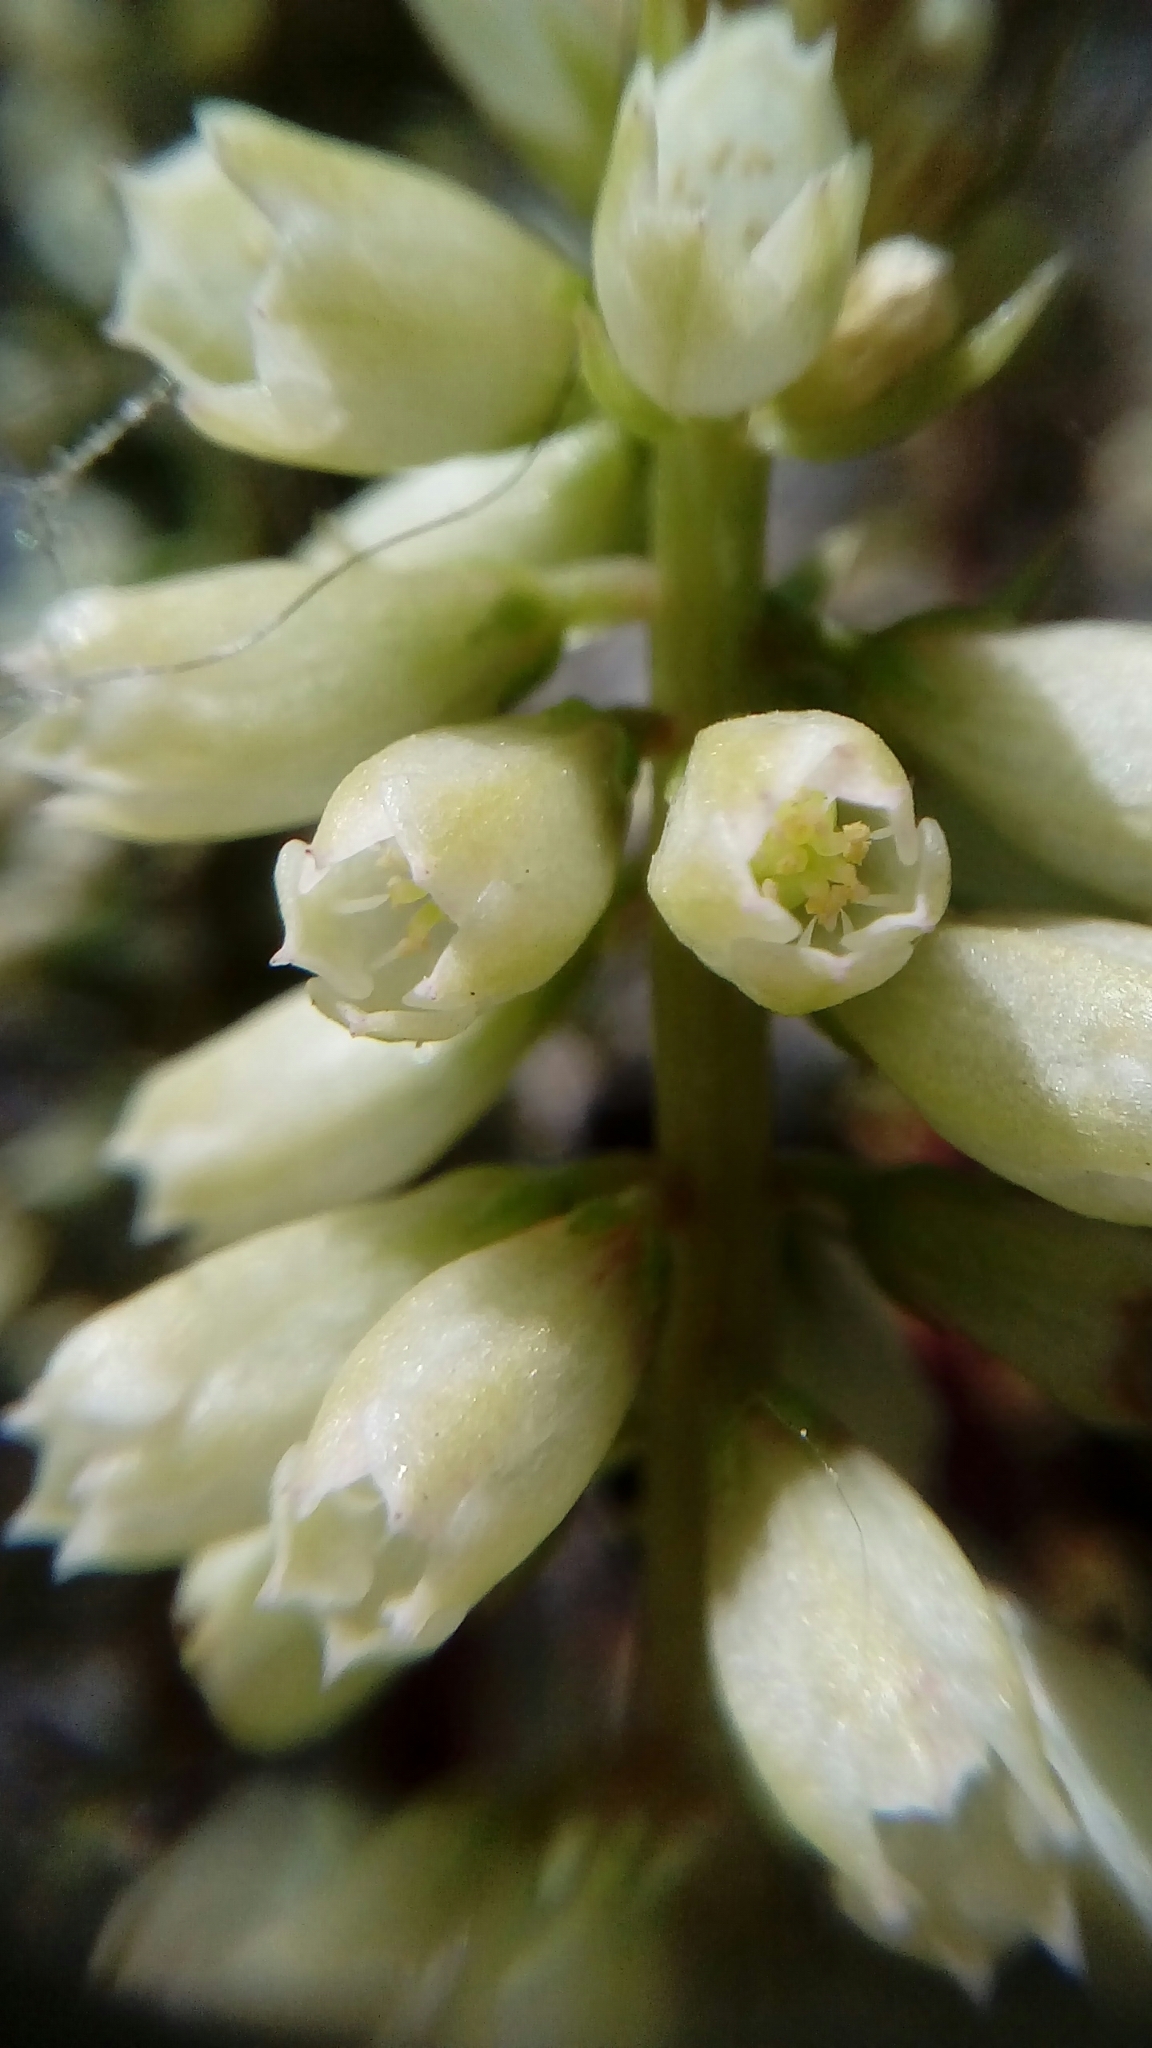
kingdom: Plantae
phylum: Tracheophyta
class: Magnoliopsida
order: Saxifragales
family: Crassulaceae
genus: Umbilicus
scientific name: Umbilicus rupestris
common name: Navelwort
